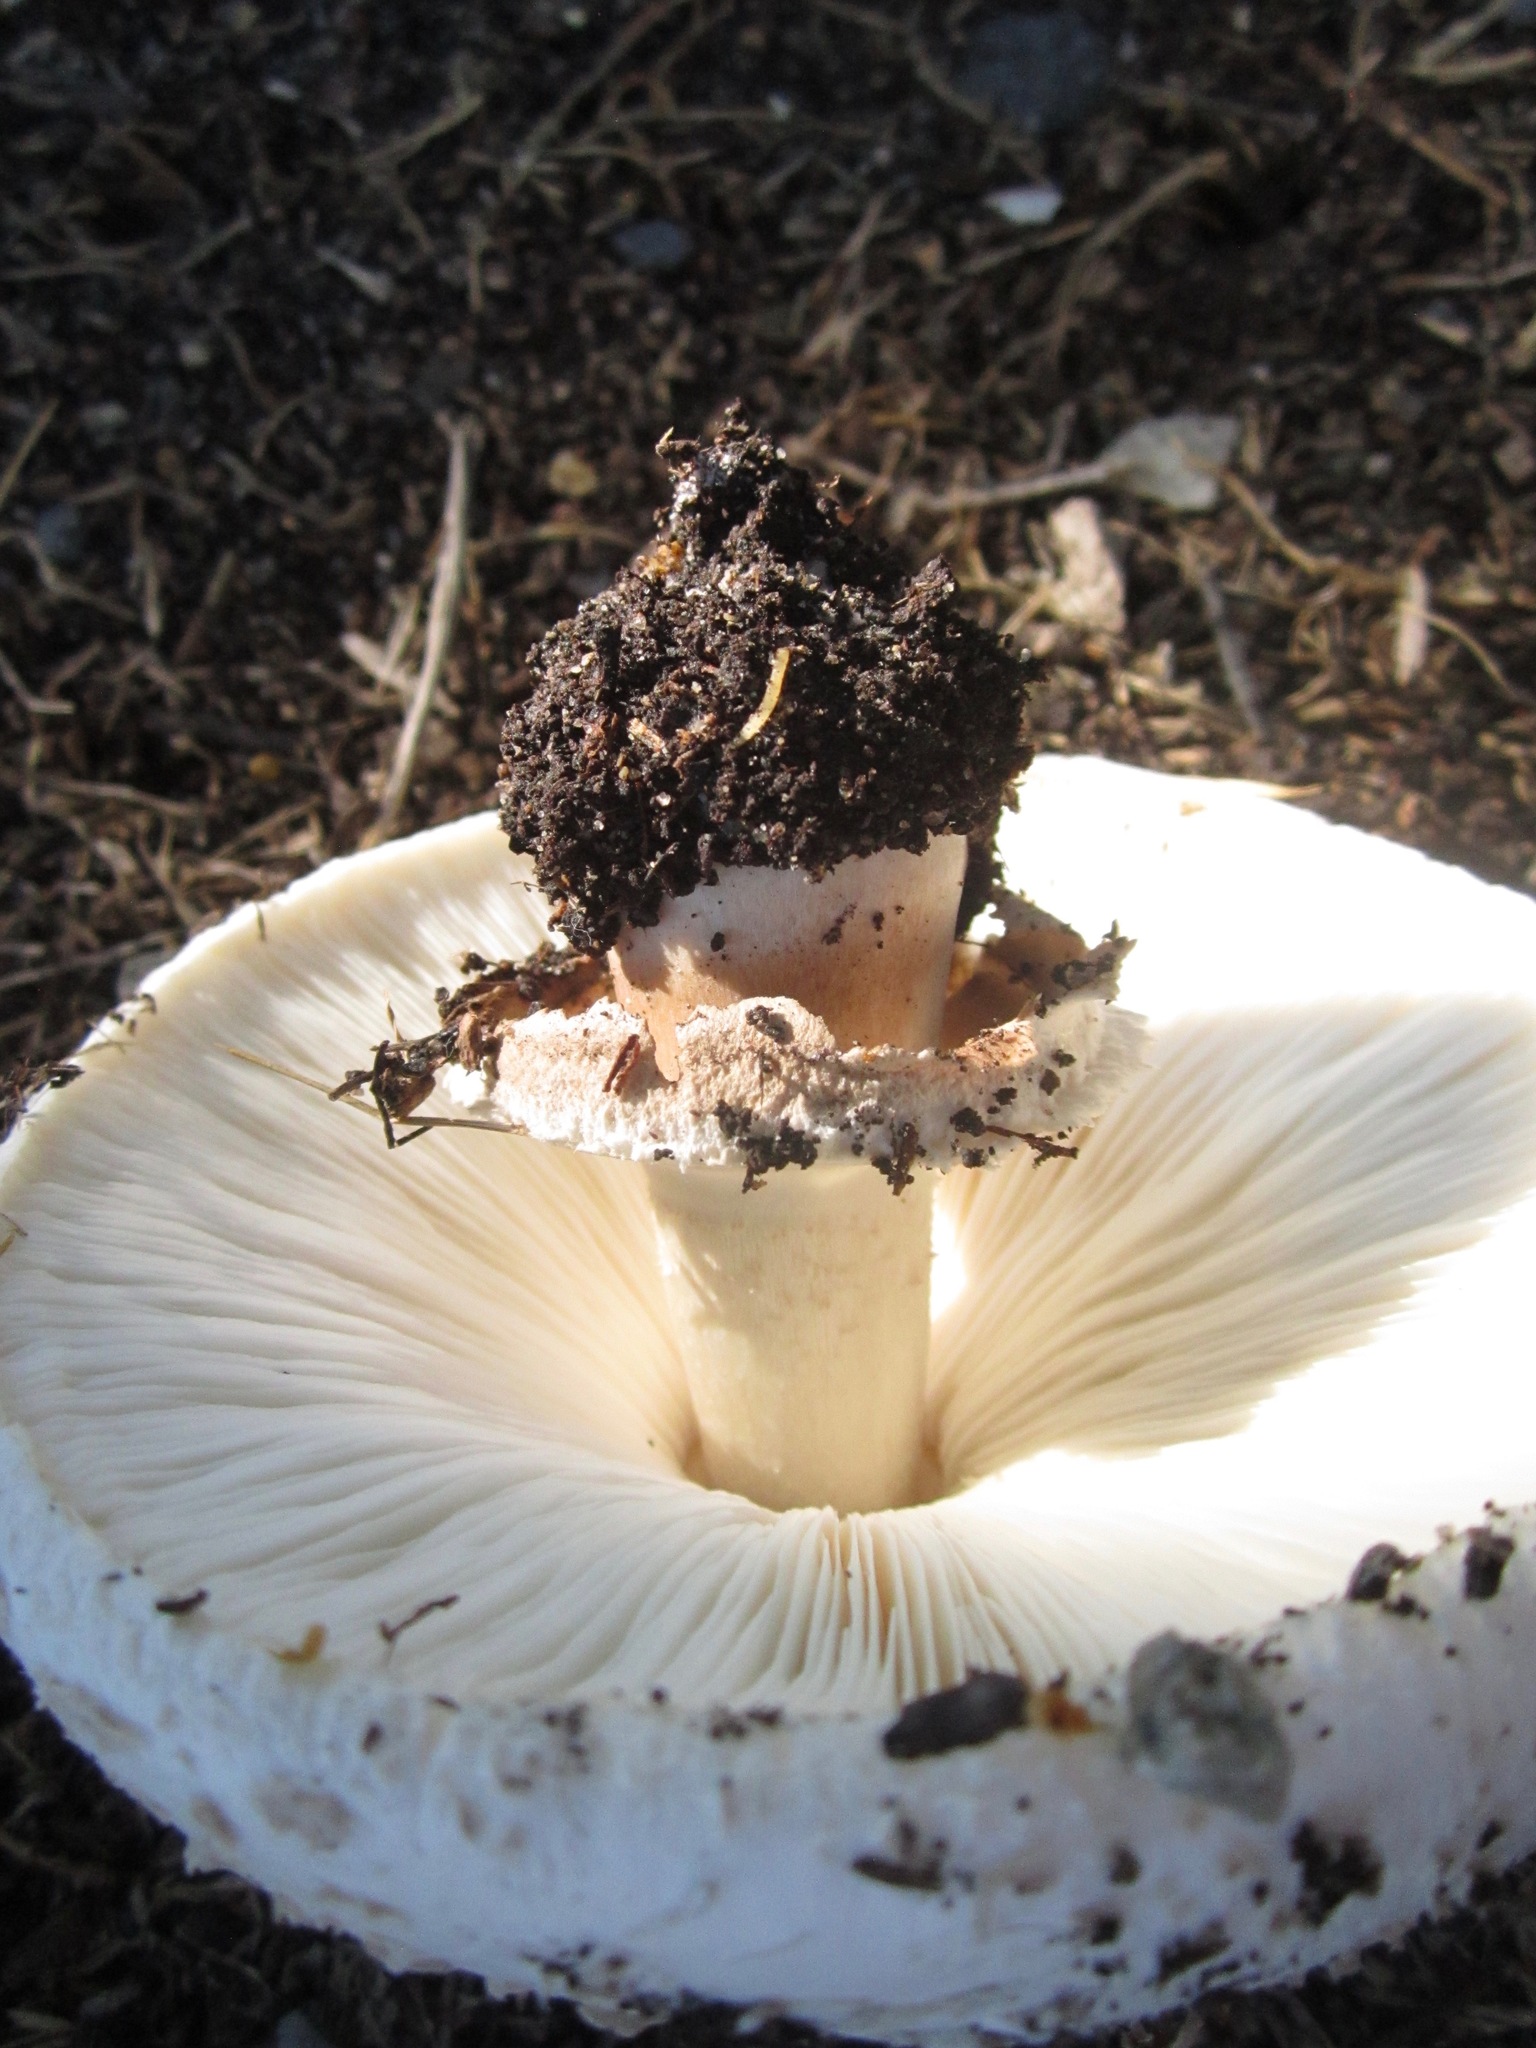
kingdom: Fungi
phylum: Basidiomycota
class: Agaricomycetes
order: Agaricales
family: Agaricaceae
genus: Chlorophyllum
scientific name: Chlorophyllum molybdites
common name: False parasol
